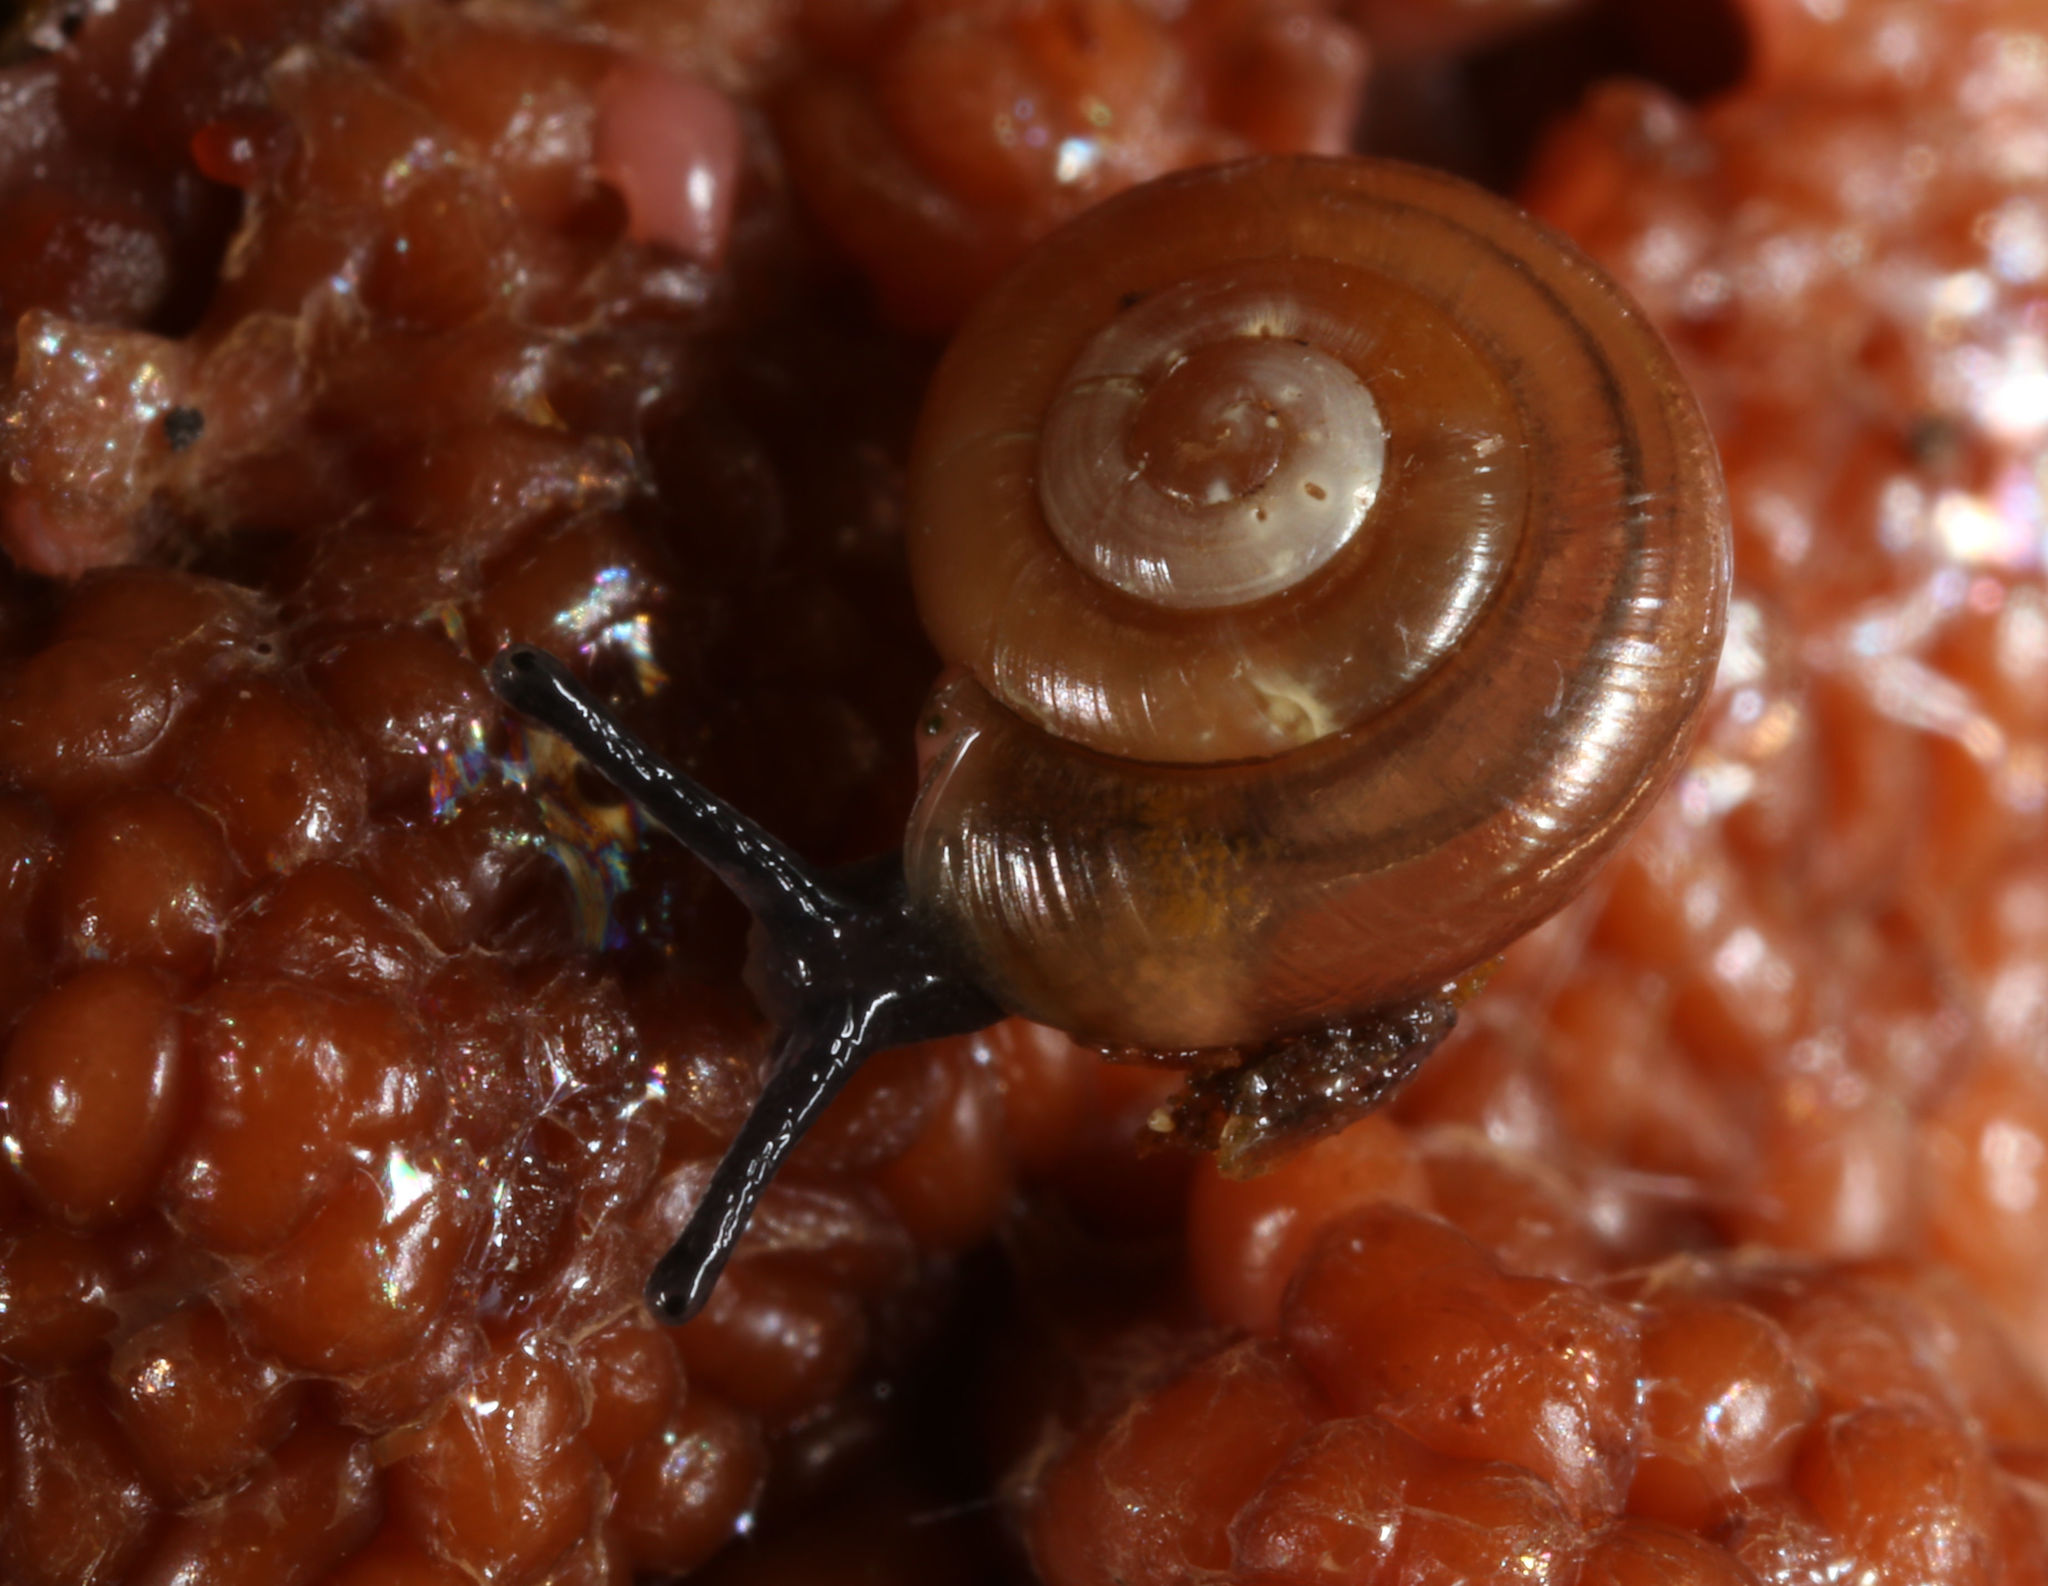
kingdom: Animalia
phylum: Mollusca
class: Gastropoda
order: Stylommatophora
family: Gastrodontidae
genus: Zonitoides
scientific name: Zonitoides arboreus
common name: Quick gloss
